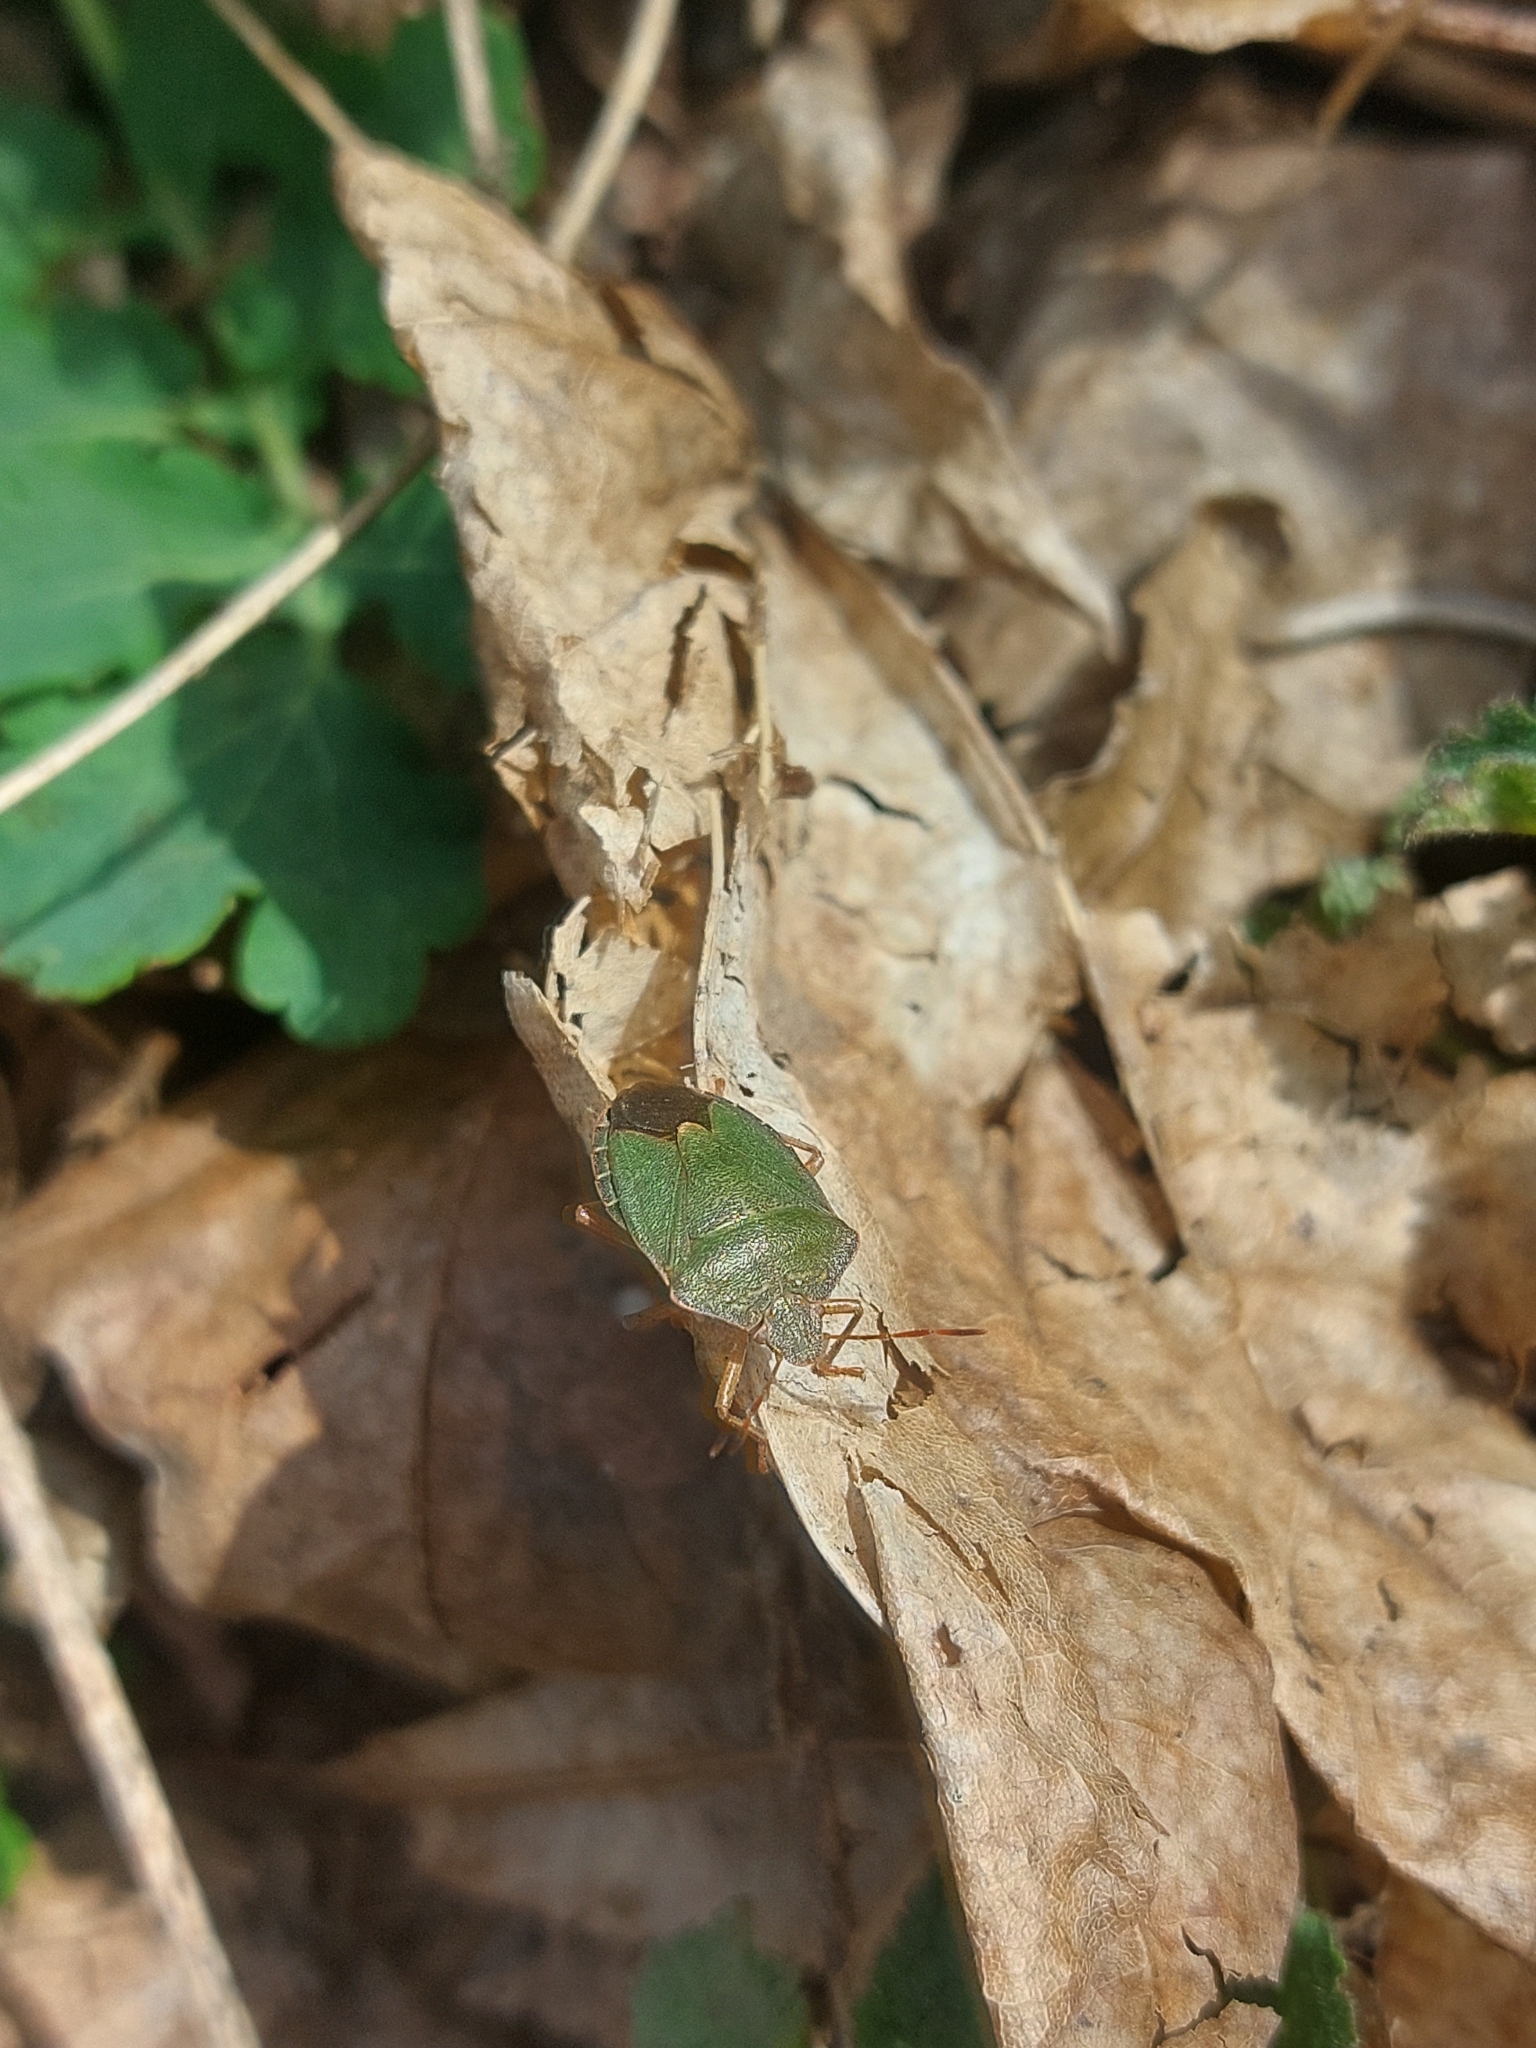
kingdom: Animalia
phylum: Arthropoda
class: Insecta
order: Hemiptera
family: Pentatomidae
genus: Palomena
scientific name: Palomena prasina
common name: Green shieldbug
